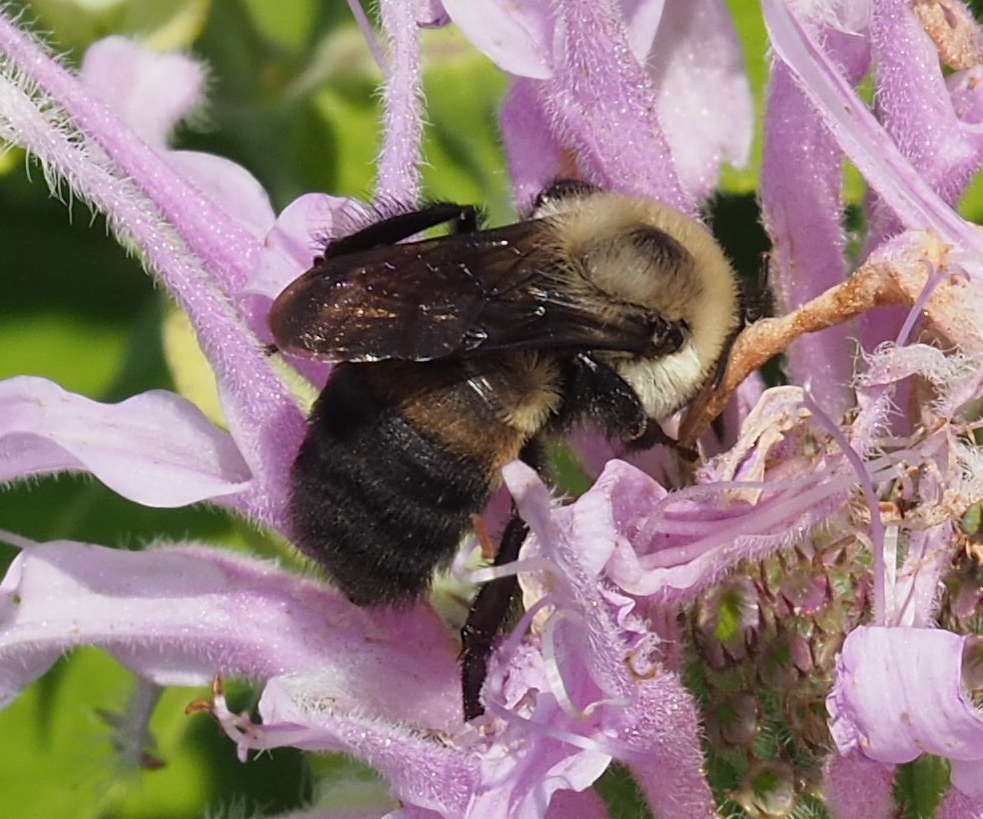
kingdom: Animalia
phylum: Arthropoda
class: Insecta
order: Hymenoptera
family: Apidae
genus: Bombus
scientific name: Bombus griseocollis
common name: Brown-belted bumble bee
